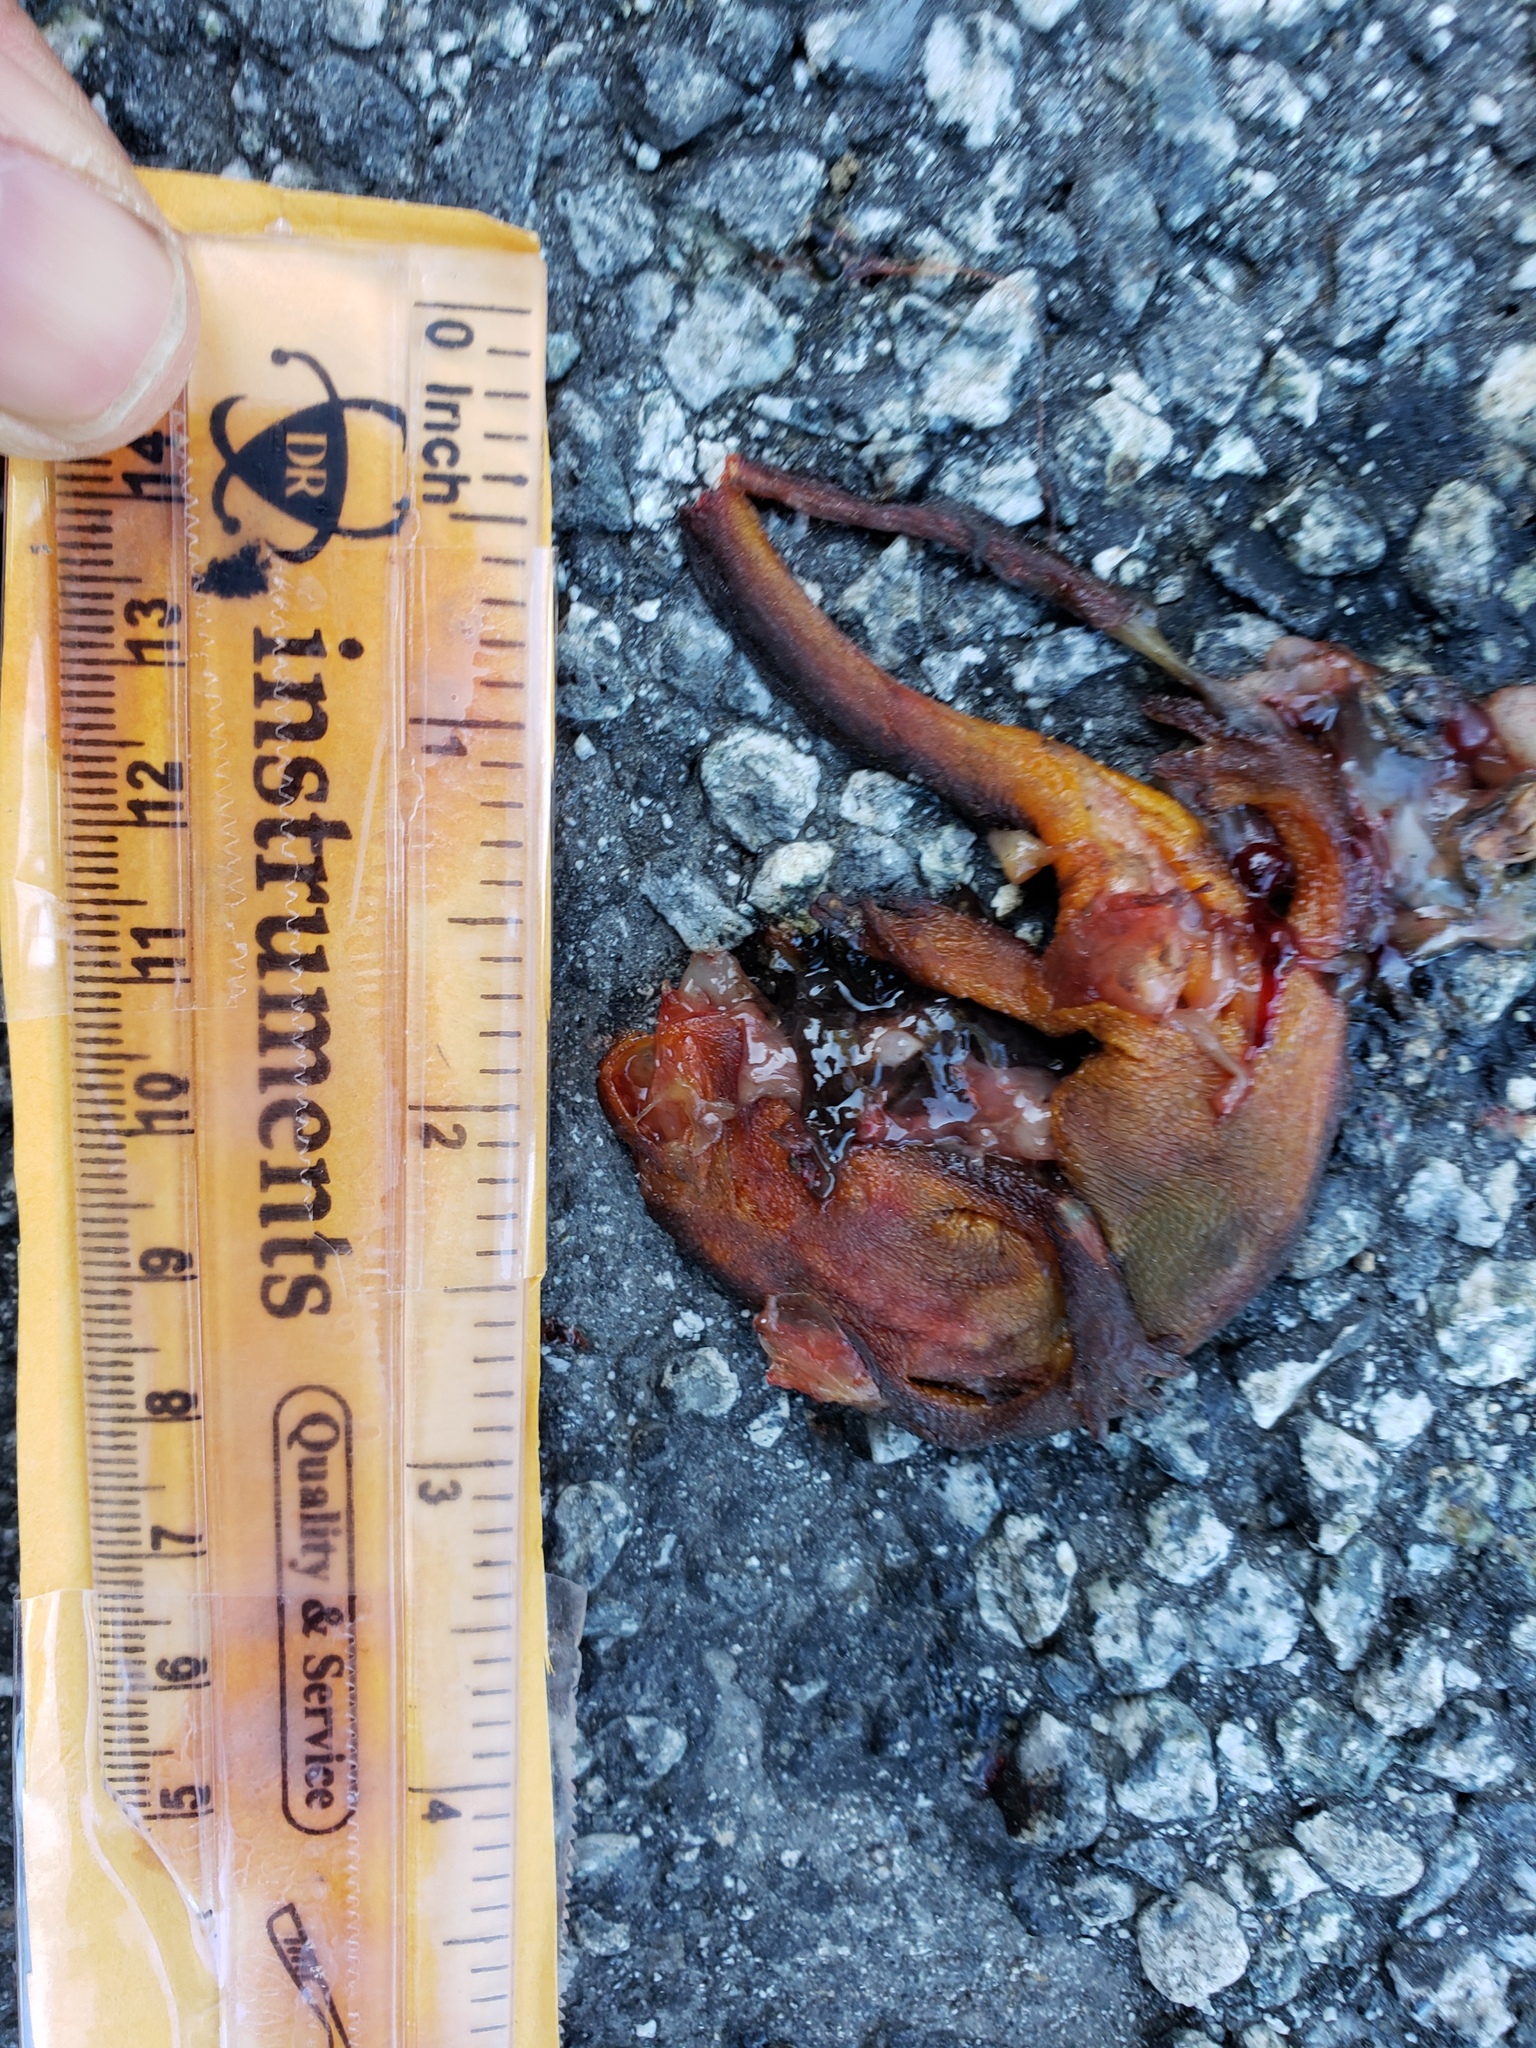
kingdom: Animalia
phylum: Chordata
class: Amphibia
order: Caudata
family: Salamandridae
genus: Taricha
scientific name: Taricha
